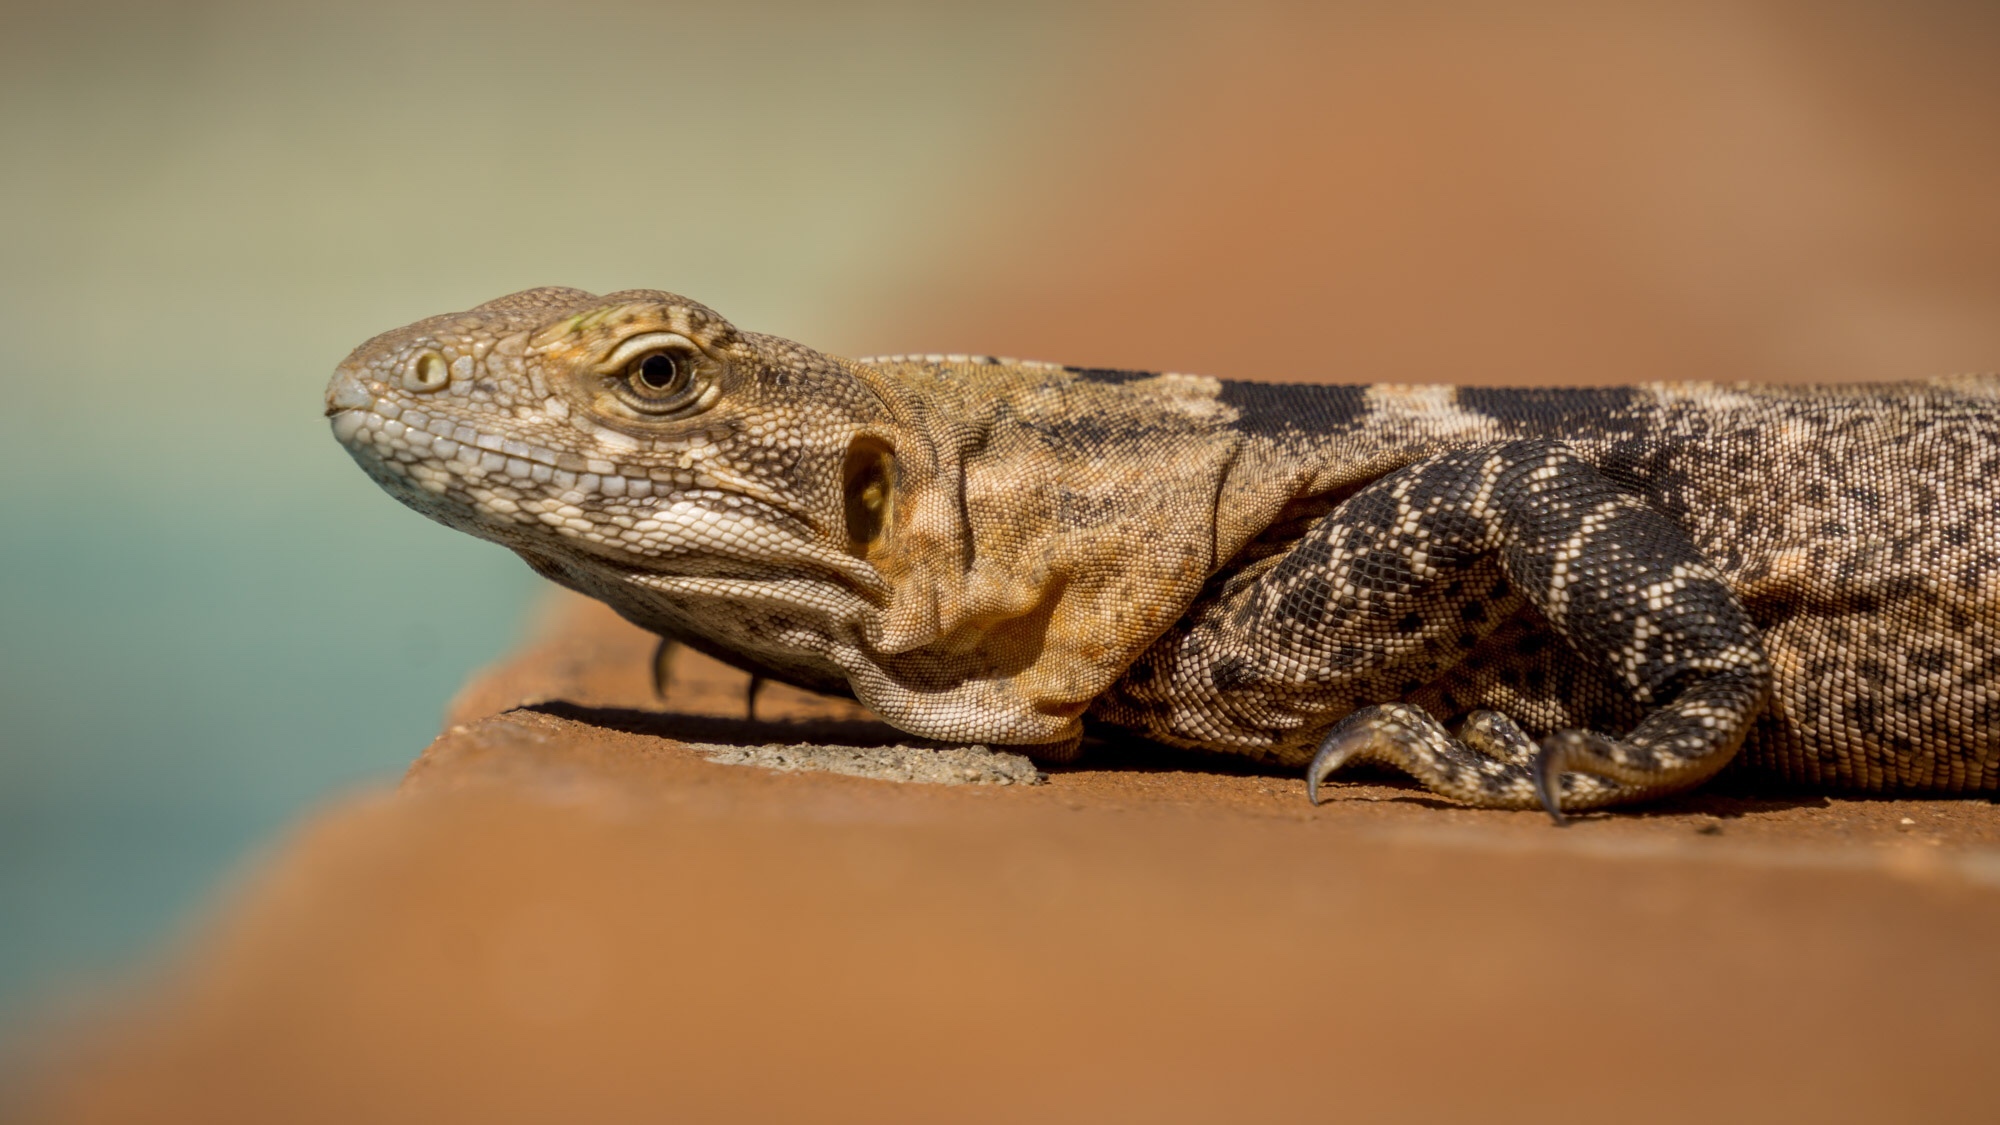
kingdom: Animalia
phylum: Chordata
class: Squamata
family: Iguanidae
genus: Ctenosaura
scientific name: Ctenosaura macrolopha
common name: Cape spinytail iguana
